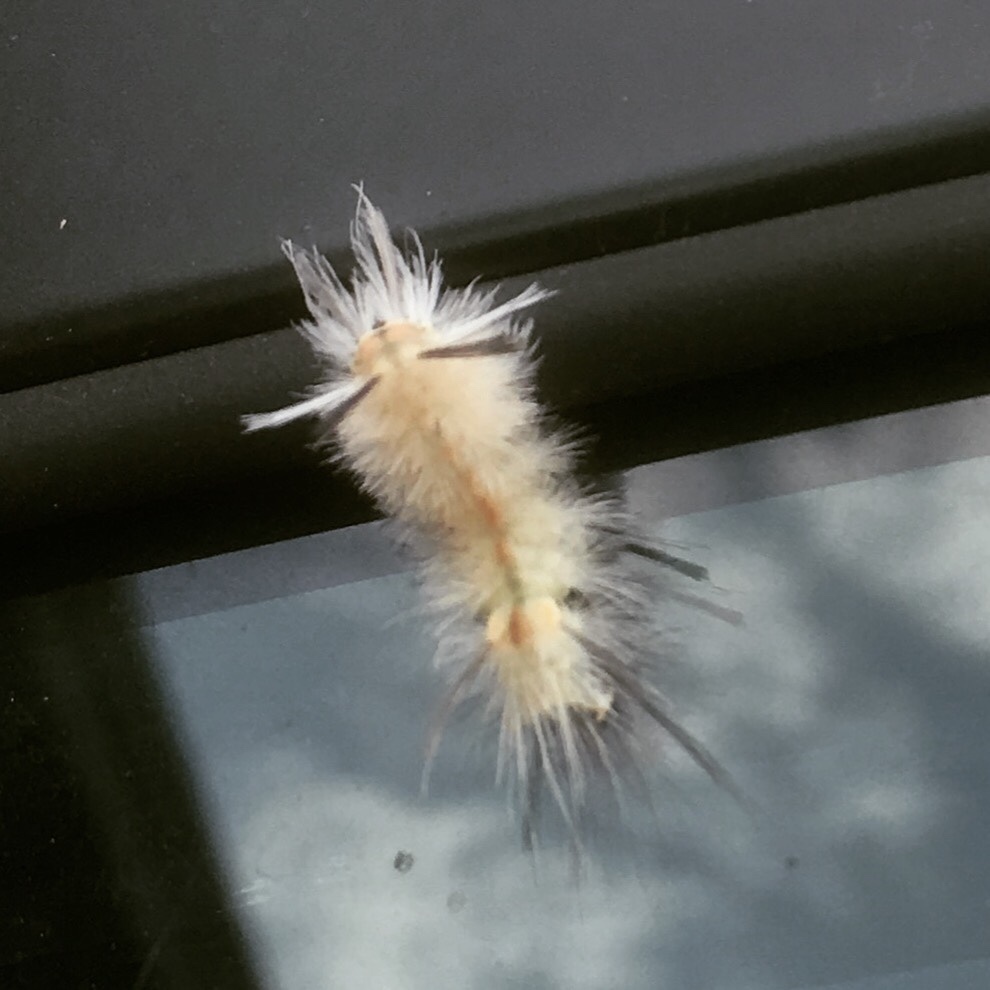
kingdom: Animalia
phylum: Arthropoda
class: Insecta
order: Lepidoptera
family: Erebidae
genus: Halysidota
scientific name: Halysidota tessellaris
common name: Banded tussock moth
